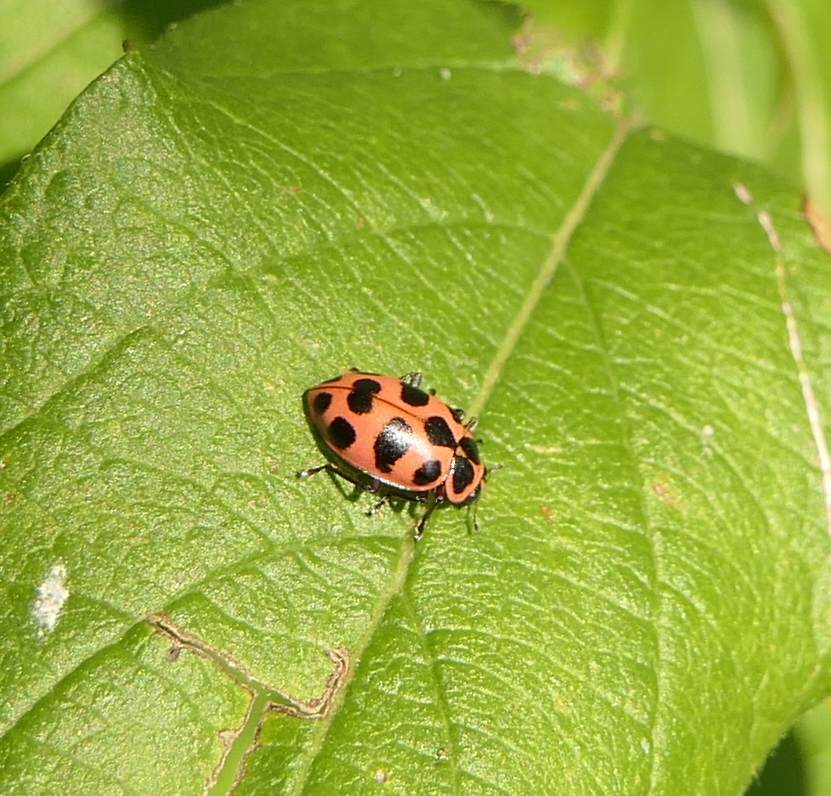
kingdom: Animalia
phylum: Arthropoda
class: Insecta
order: Coleoptera
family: Coccinellidae
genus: Coleomegilla
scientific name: Coleomegilla maculata
